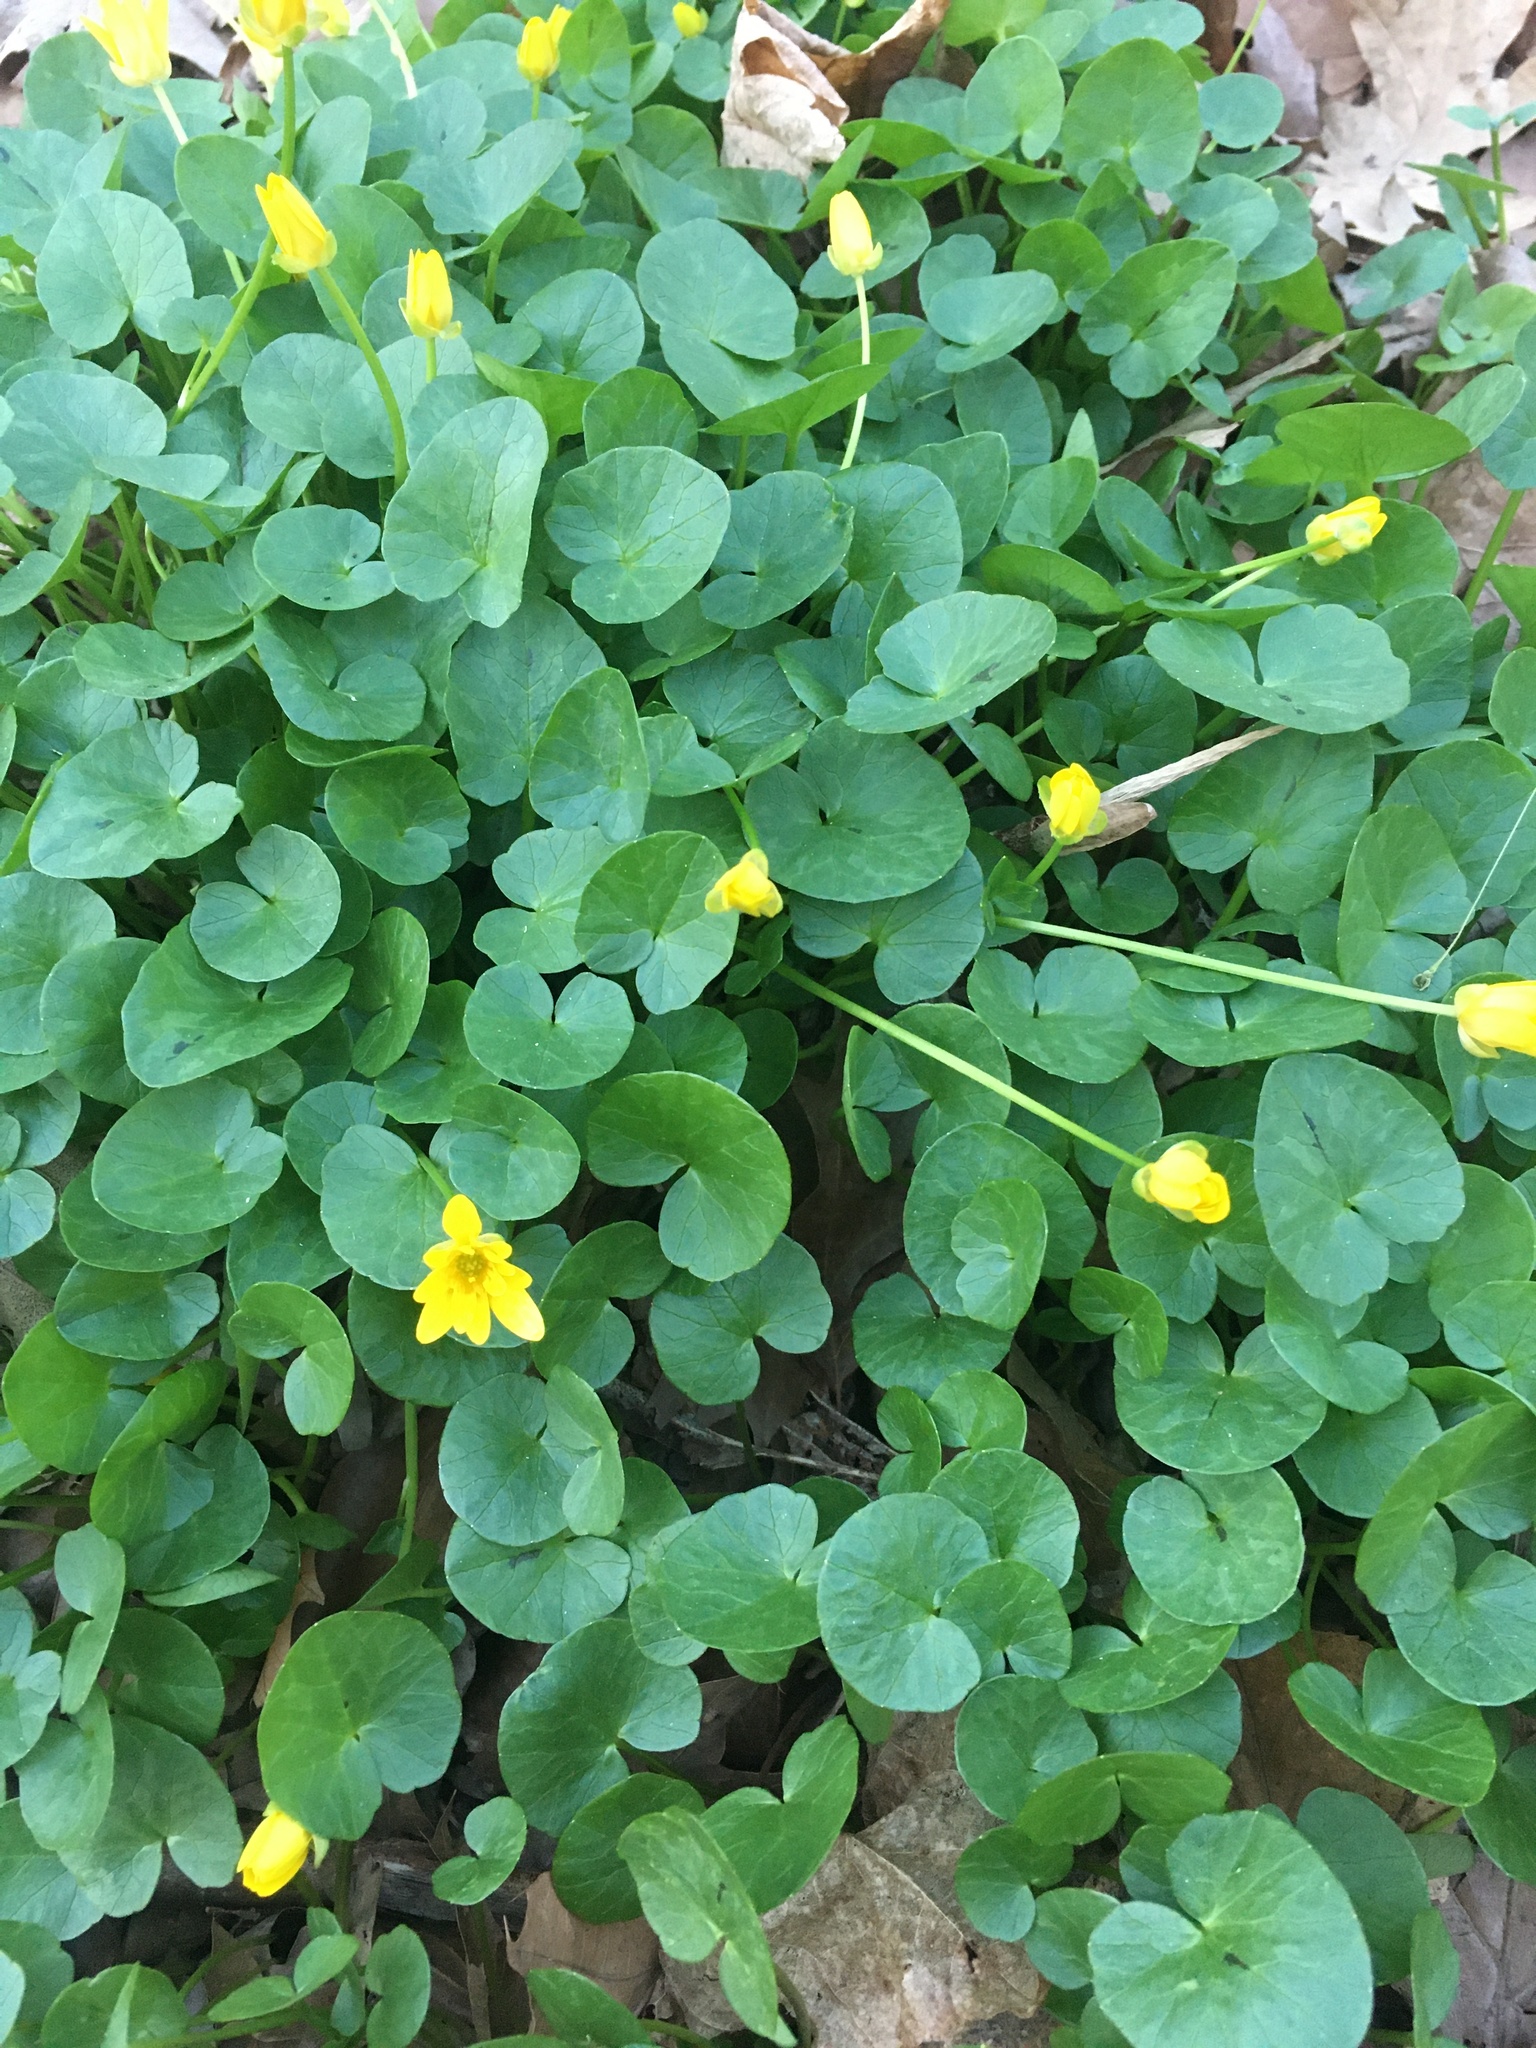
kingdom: Plantae
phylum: Tracheophyta
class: Magnoliopsida
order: Ranunculales
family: Ranunculaceae
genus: Ficaria
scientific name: Ficaria verna
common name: Lesser celandine
